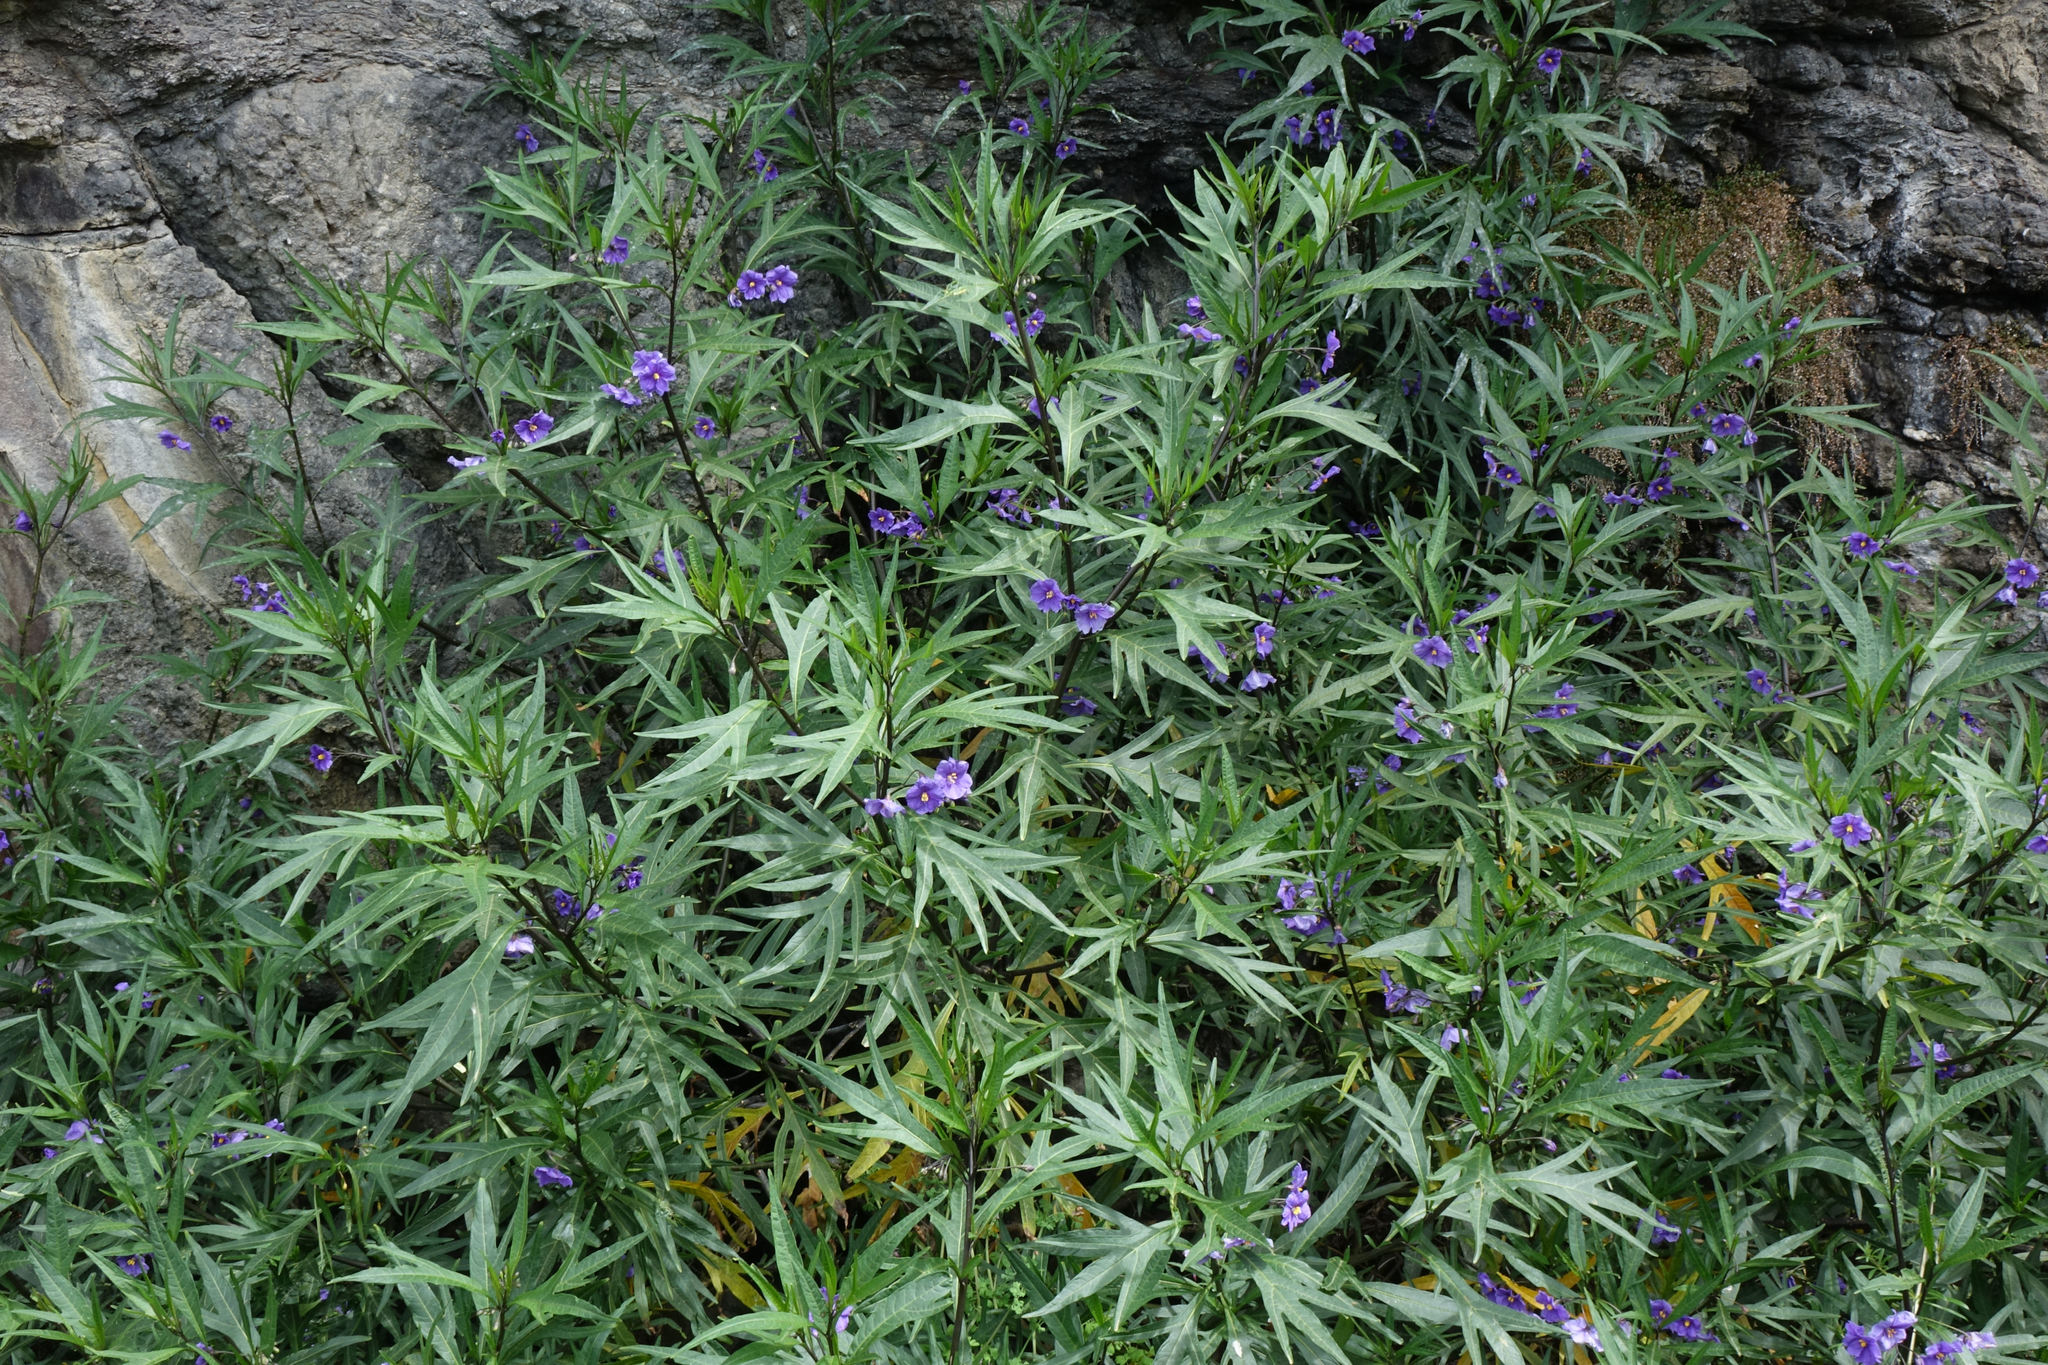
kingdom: Plantae
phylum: Tracheophyta
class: Magnoliopsida
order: Solanales
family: Solanaceae
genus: Solanum
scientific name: Solanum laciniatum
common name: Kangaroo-apple
